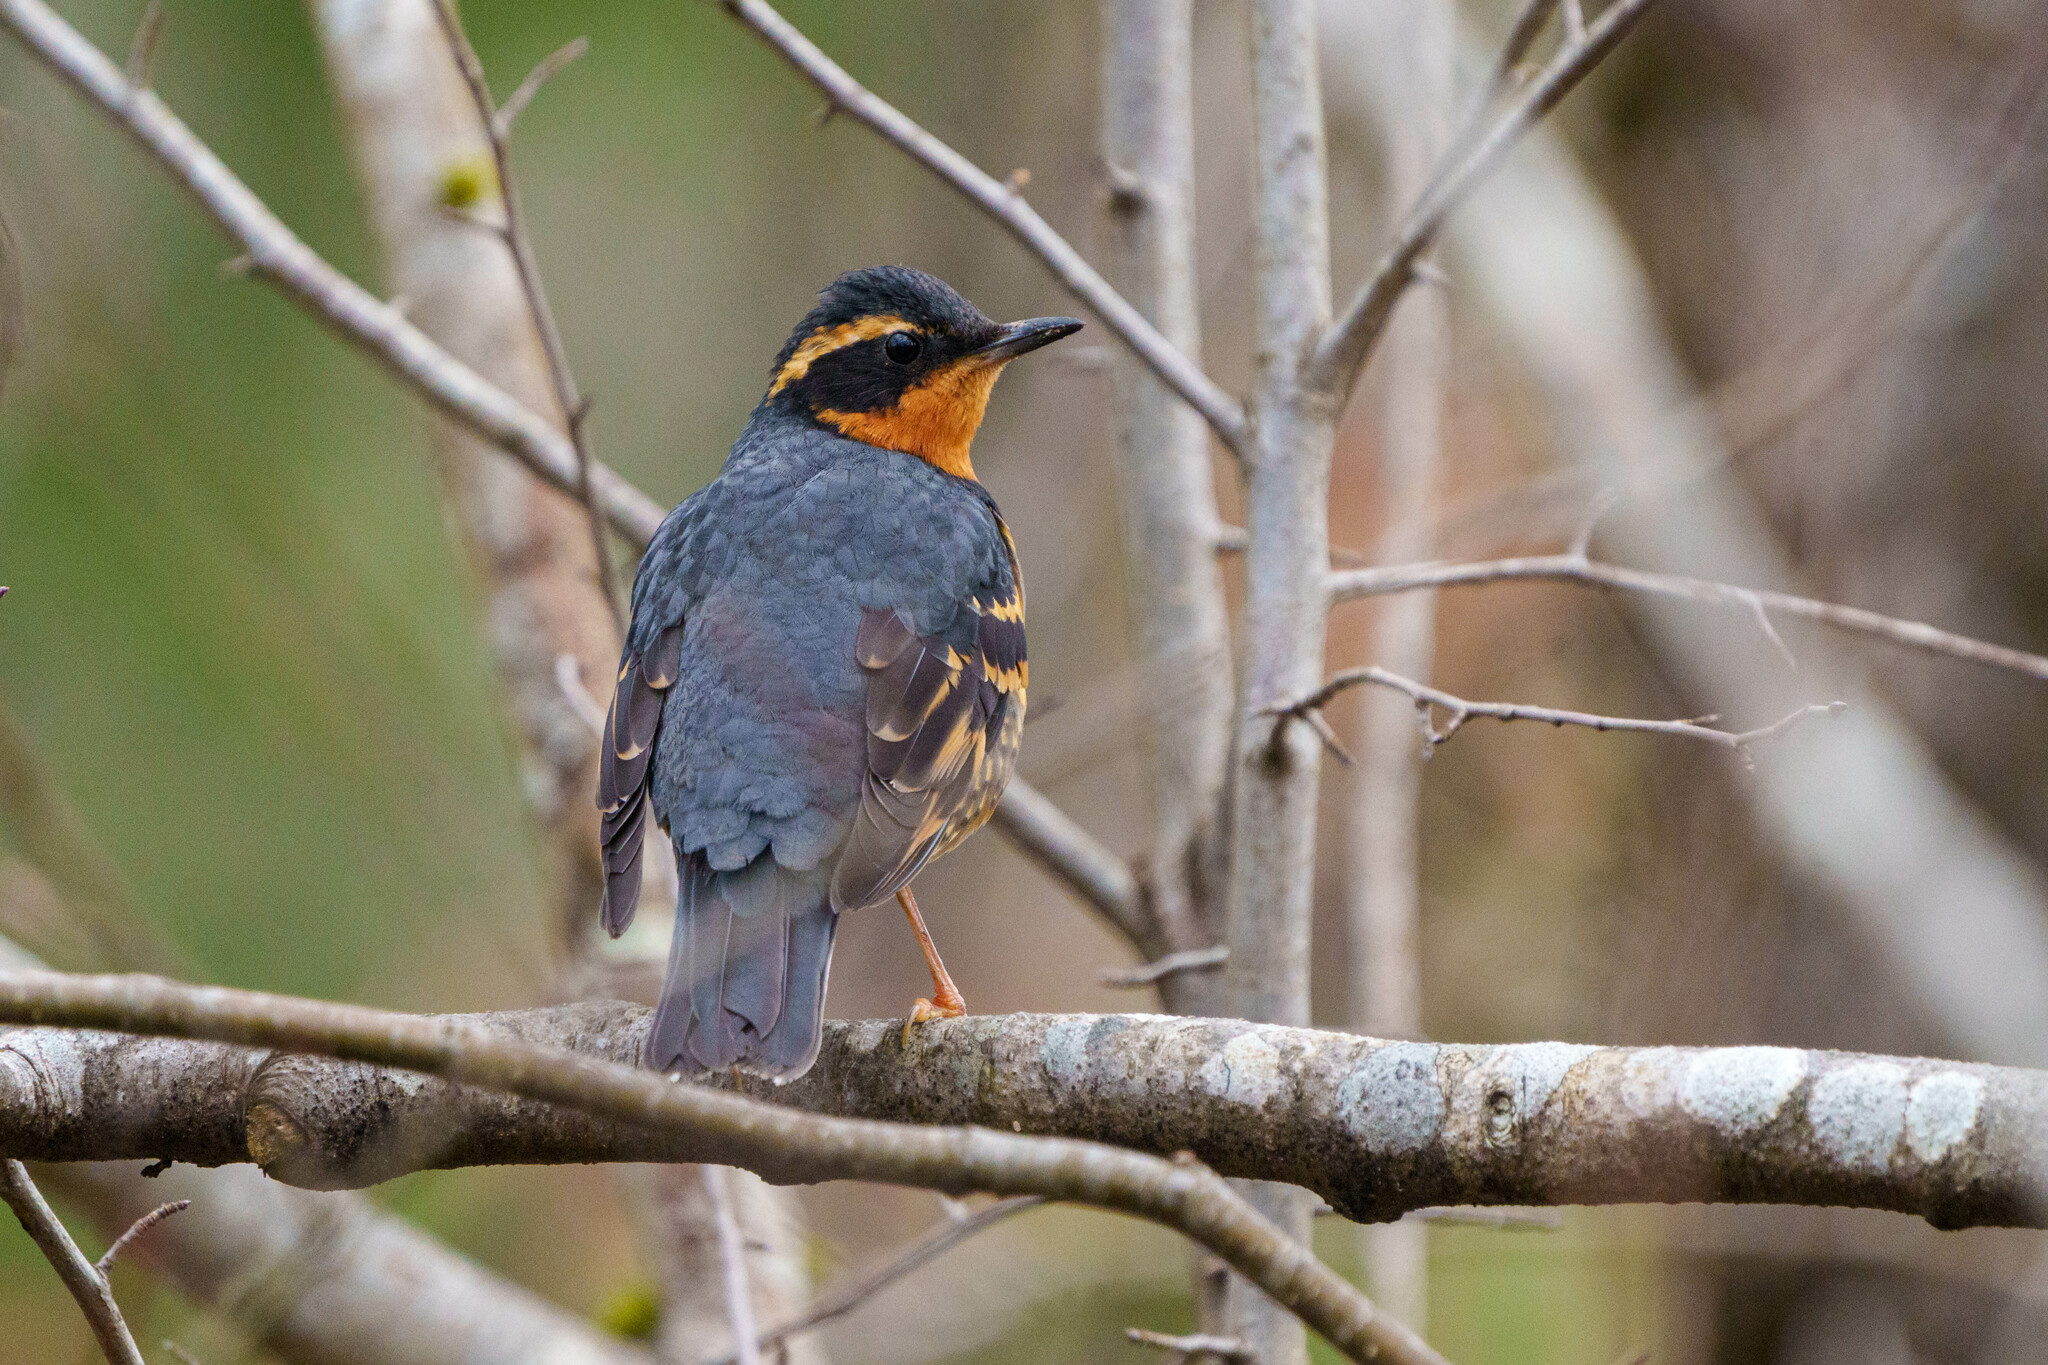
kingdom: Animalia
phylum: Chordata
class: Aves
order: Passeriformes
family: Turdidae
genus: Ixoreus
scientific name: Ixoreus naevius
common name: Varied thrush
